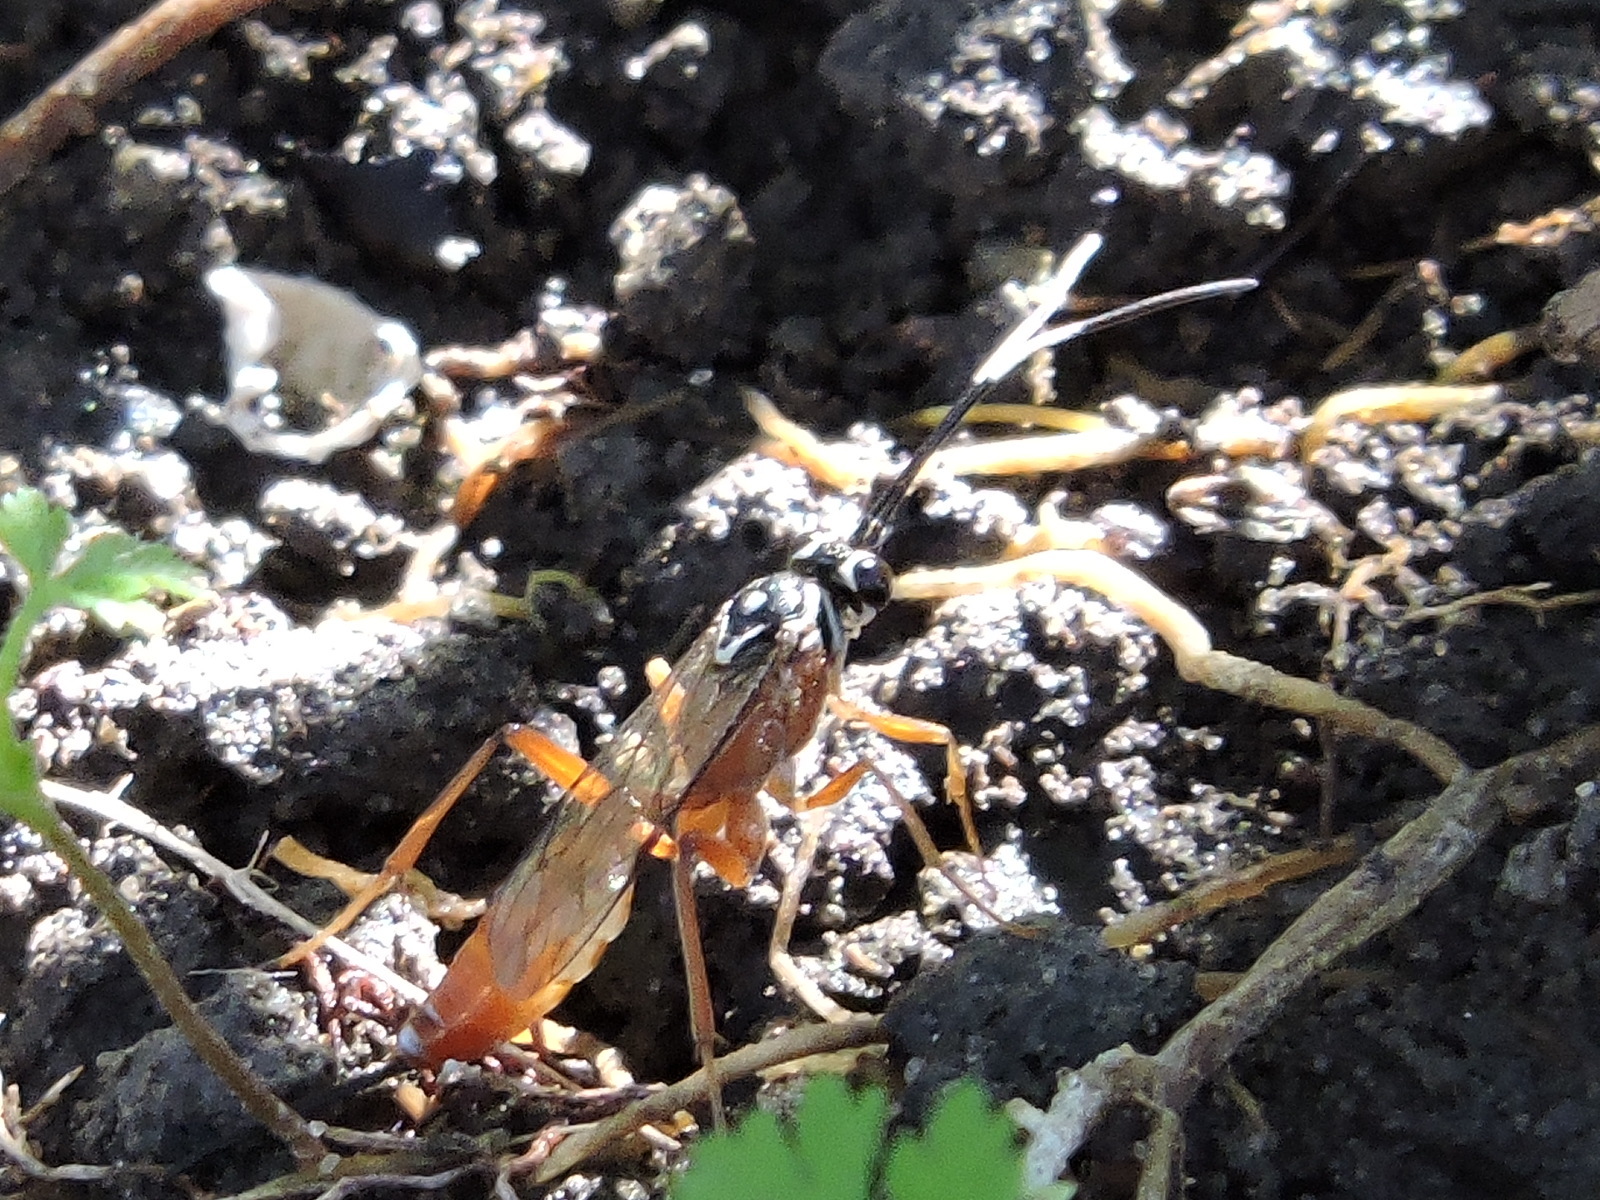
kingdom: Animalia
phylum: Arthropoda
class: Insecta
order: Hymenoptera
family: Ichneumonidae
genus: Mesostenus
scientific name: Mesostenus thoracicus
